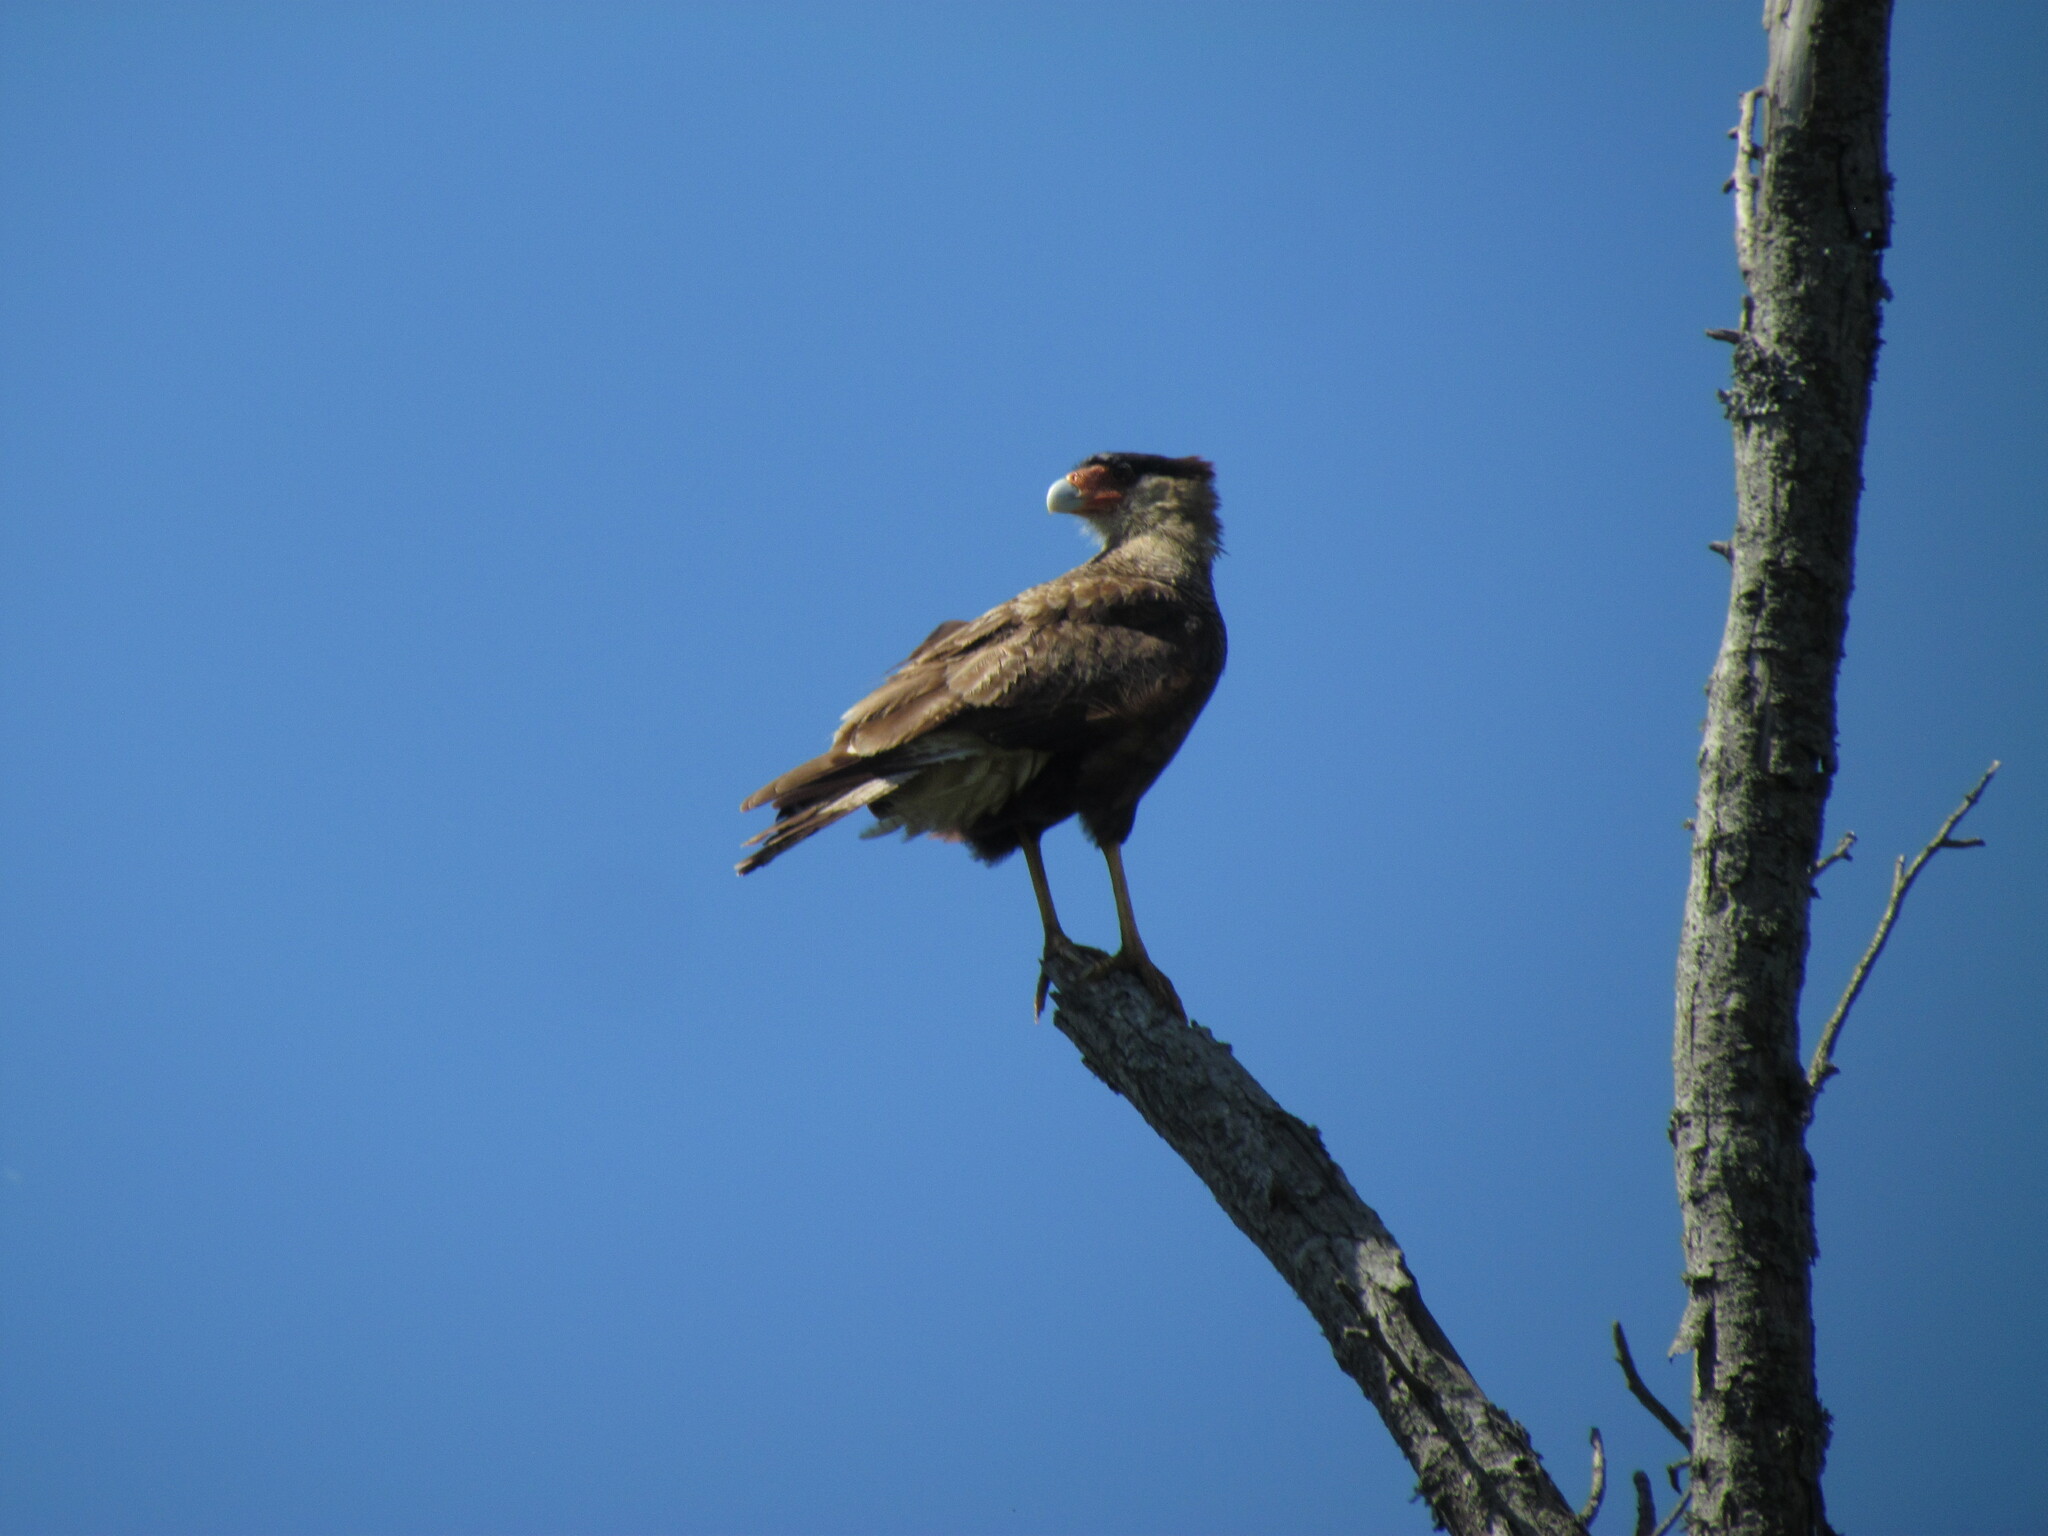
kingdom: Animalia
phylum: Chordata
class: Aves
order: Falconiformes
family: Falconidae
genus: Caracara
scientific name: Caracara plancus
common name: Southern caracara
